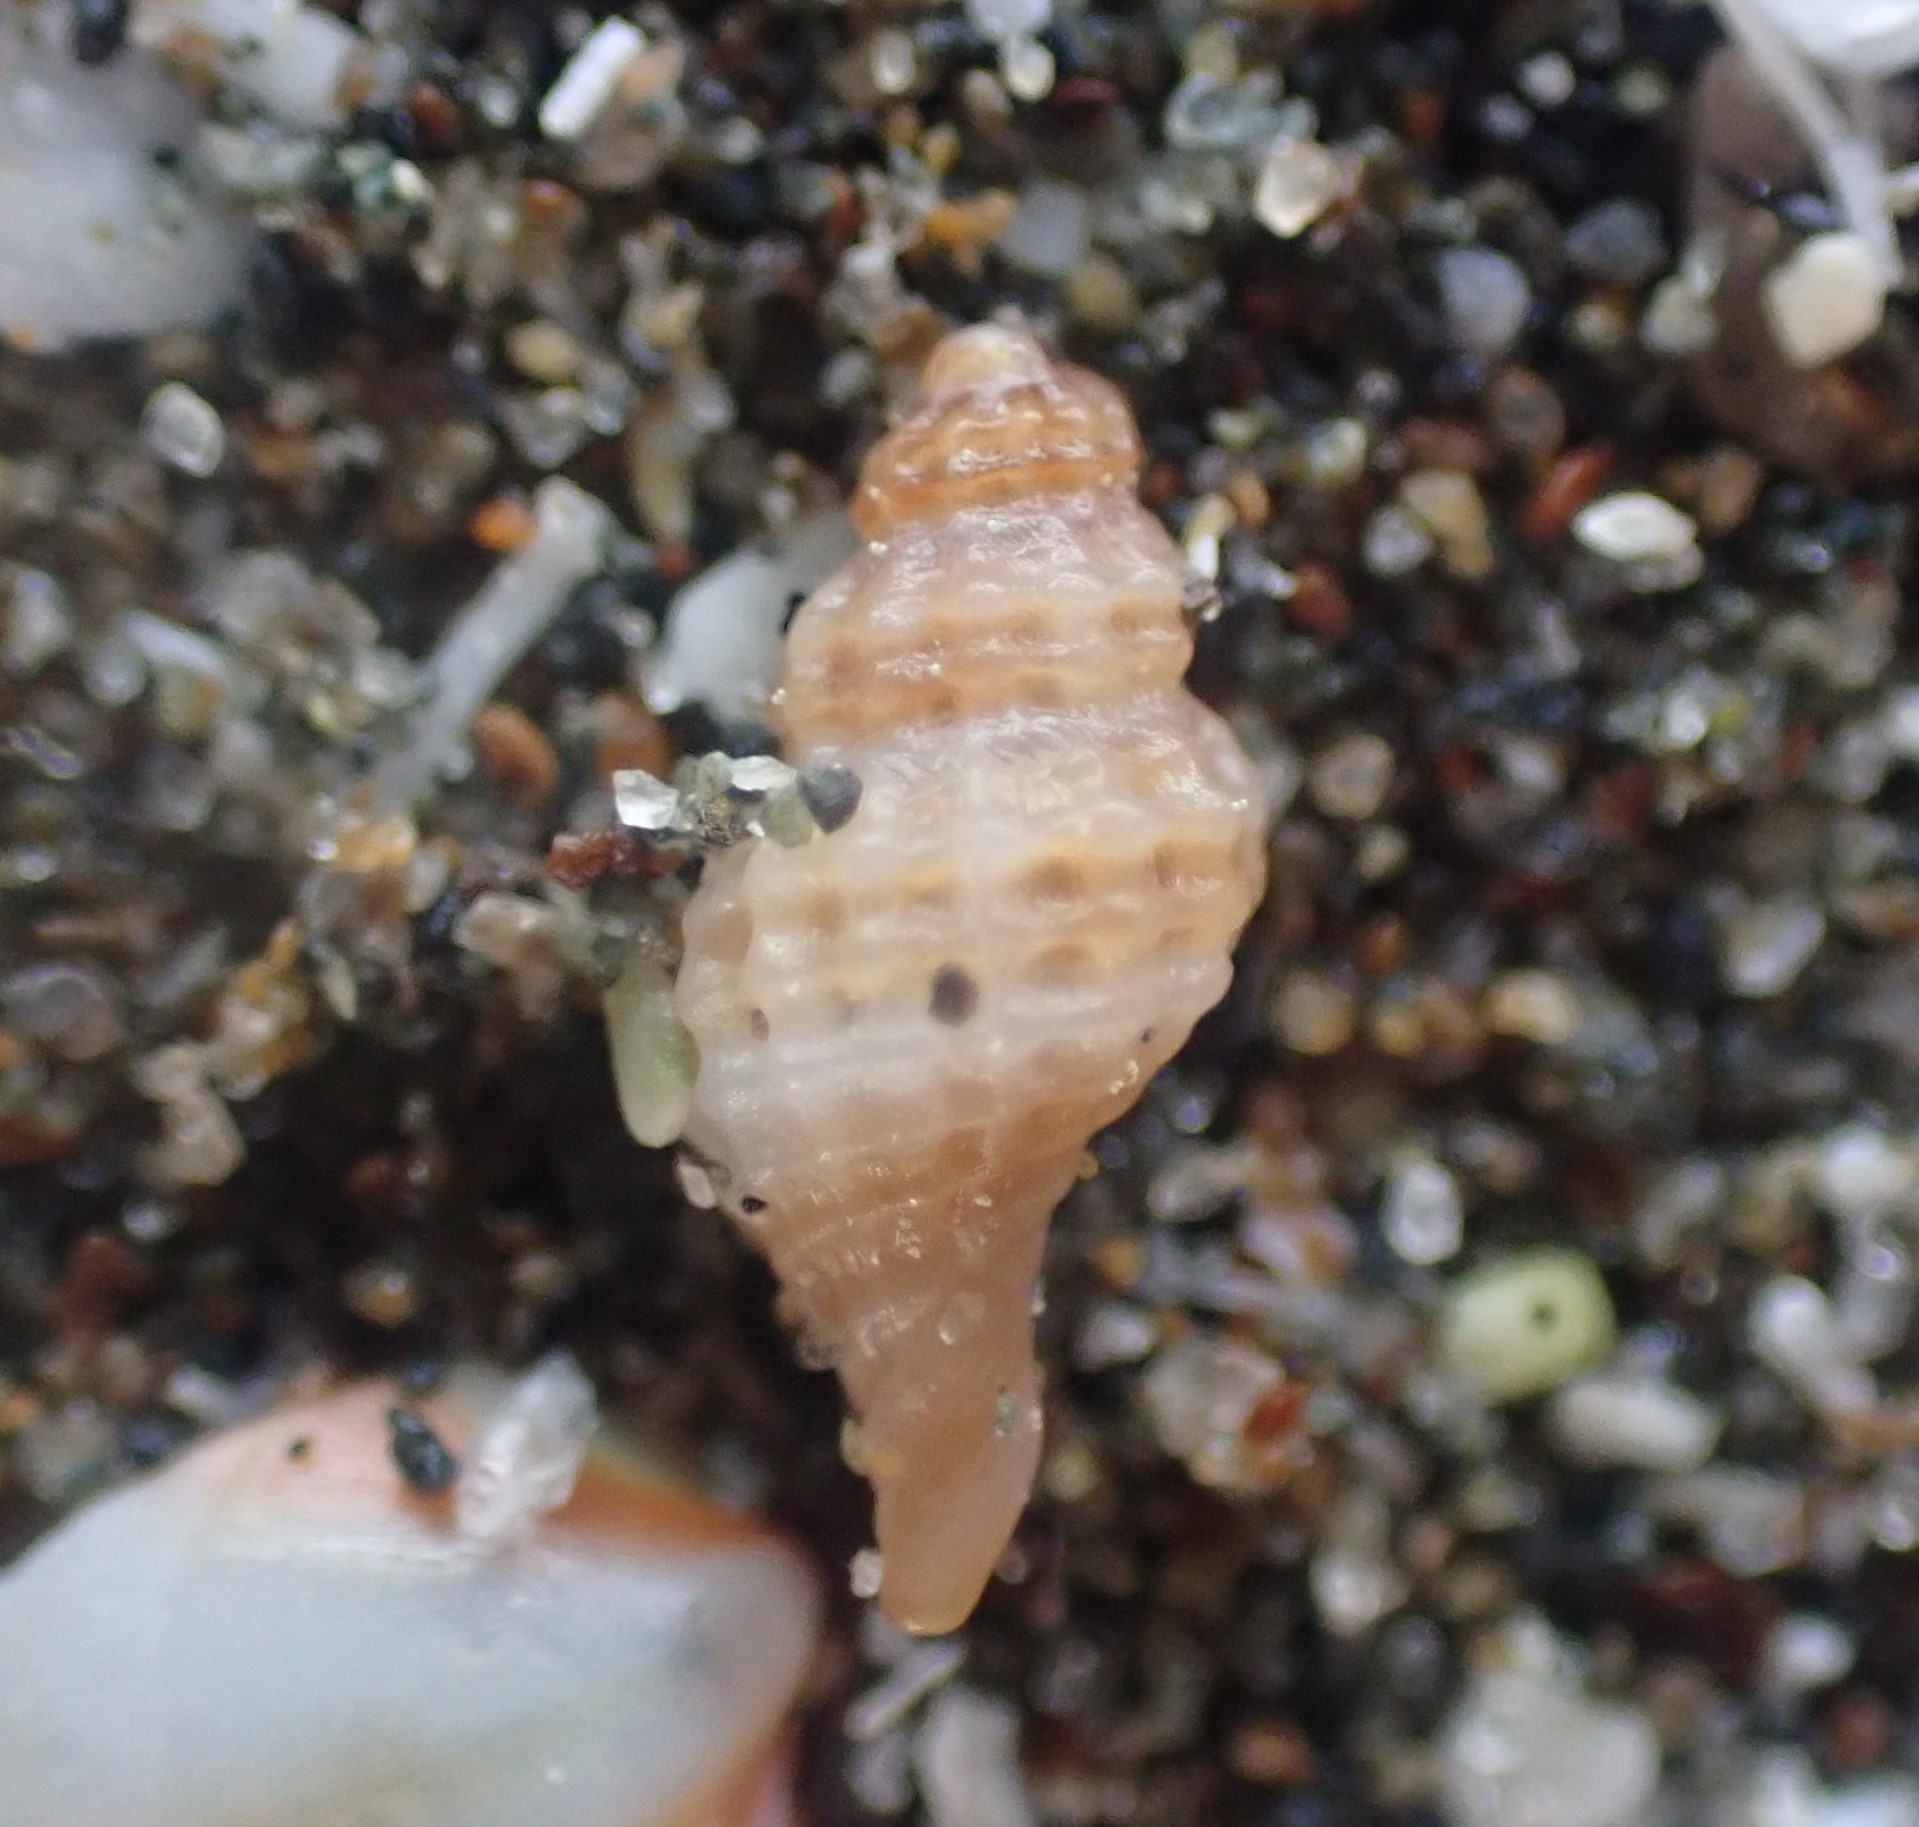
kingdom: Animalia
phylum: Mollusca
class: Gastropoda
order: Neogastropoda
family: Muricidae
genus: Xymenella
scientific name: Xymenella pusilla
